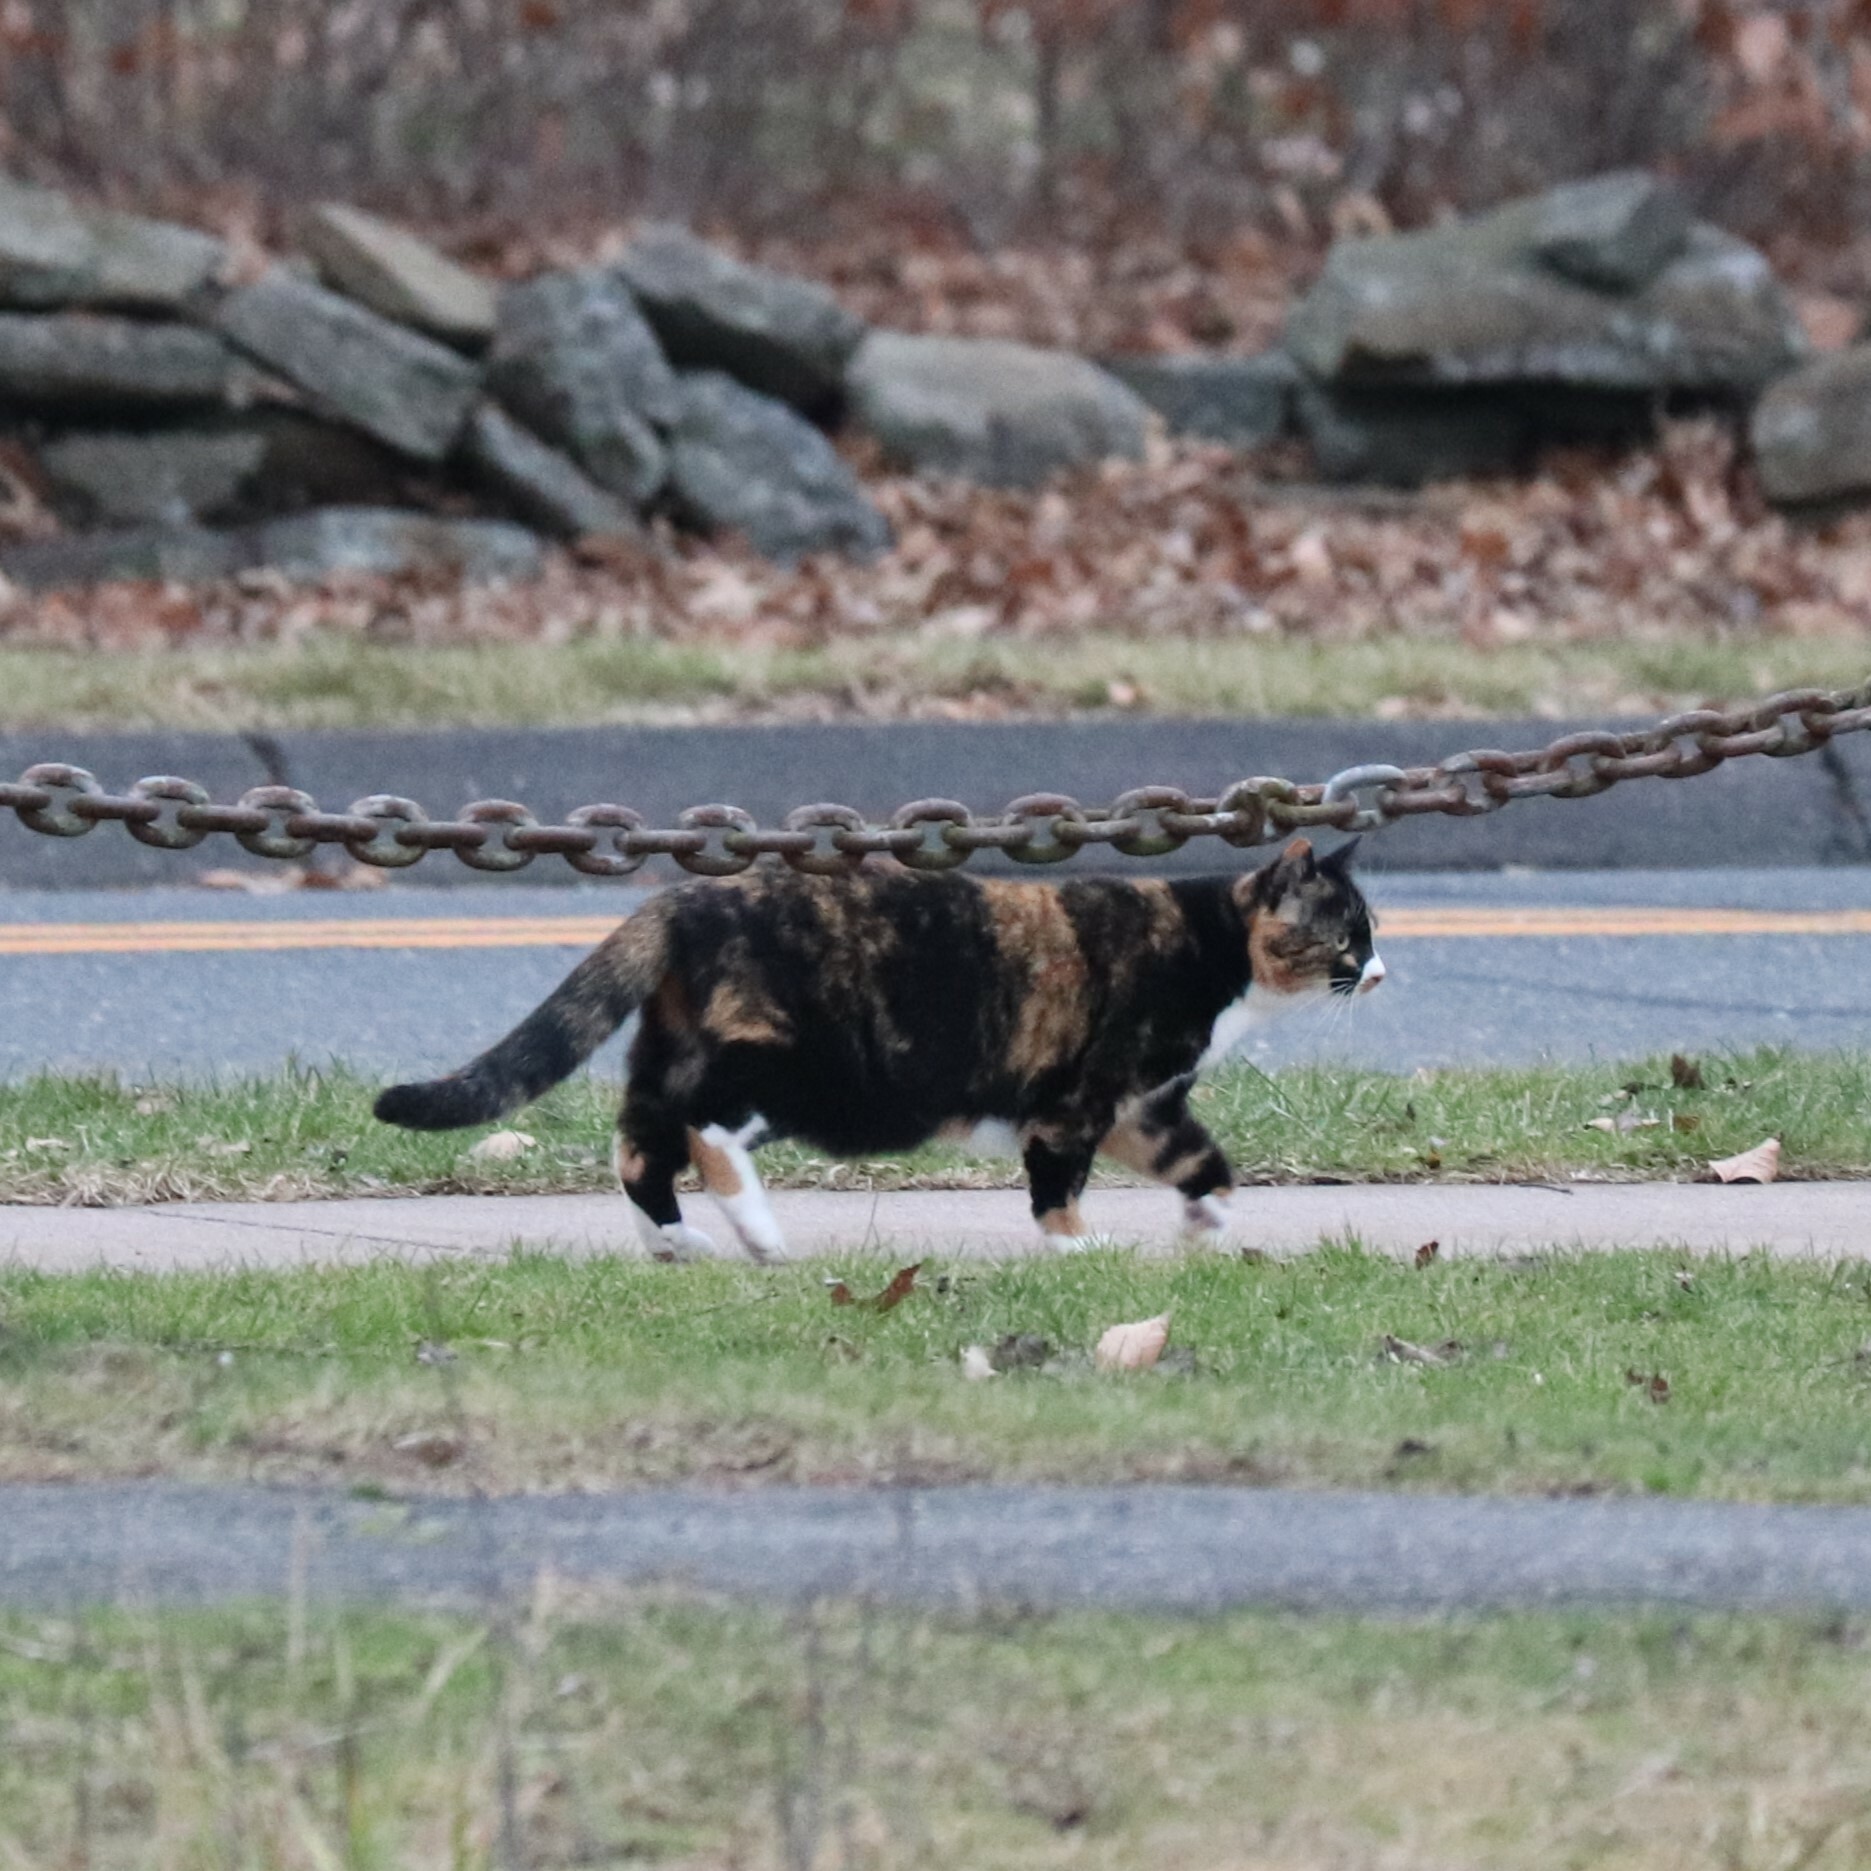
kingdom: Animalia
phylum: Chordata
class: Mammalia
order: Carnivora
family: Felidae
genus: Felis
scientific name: Felis catus
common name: Domestic cat
